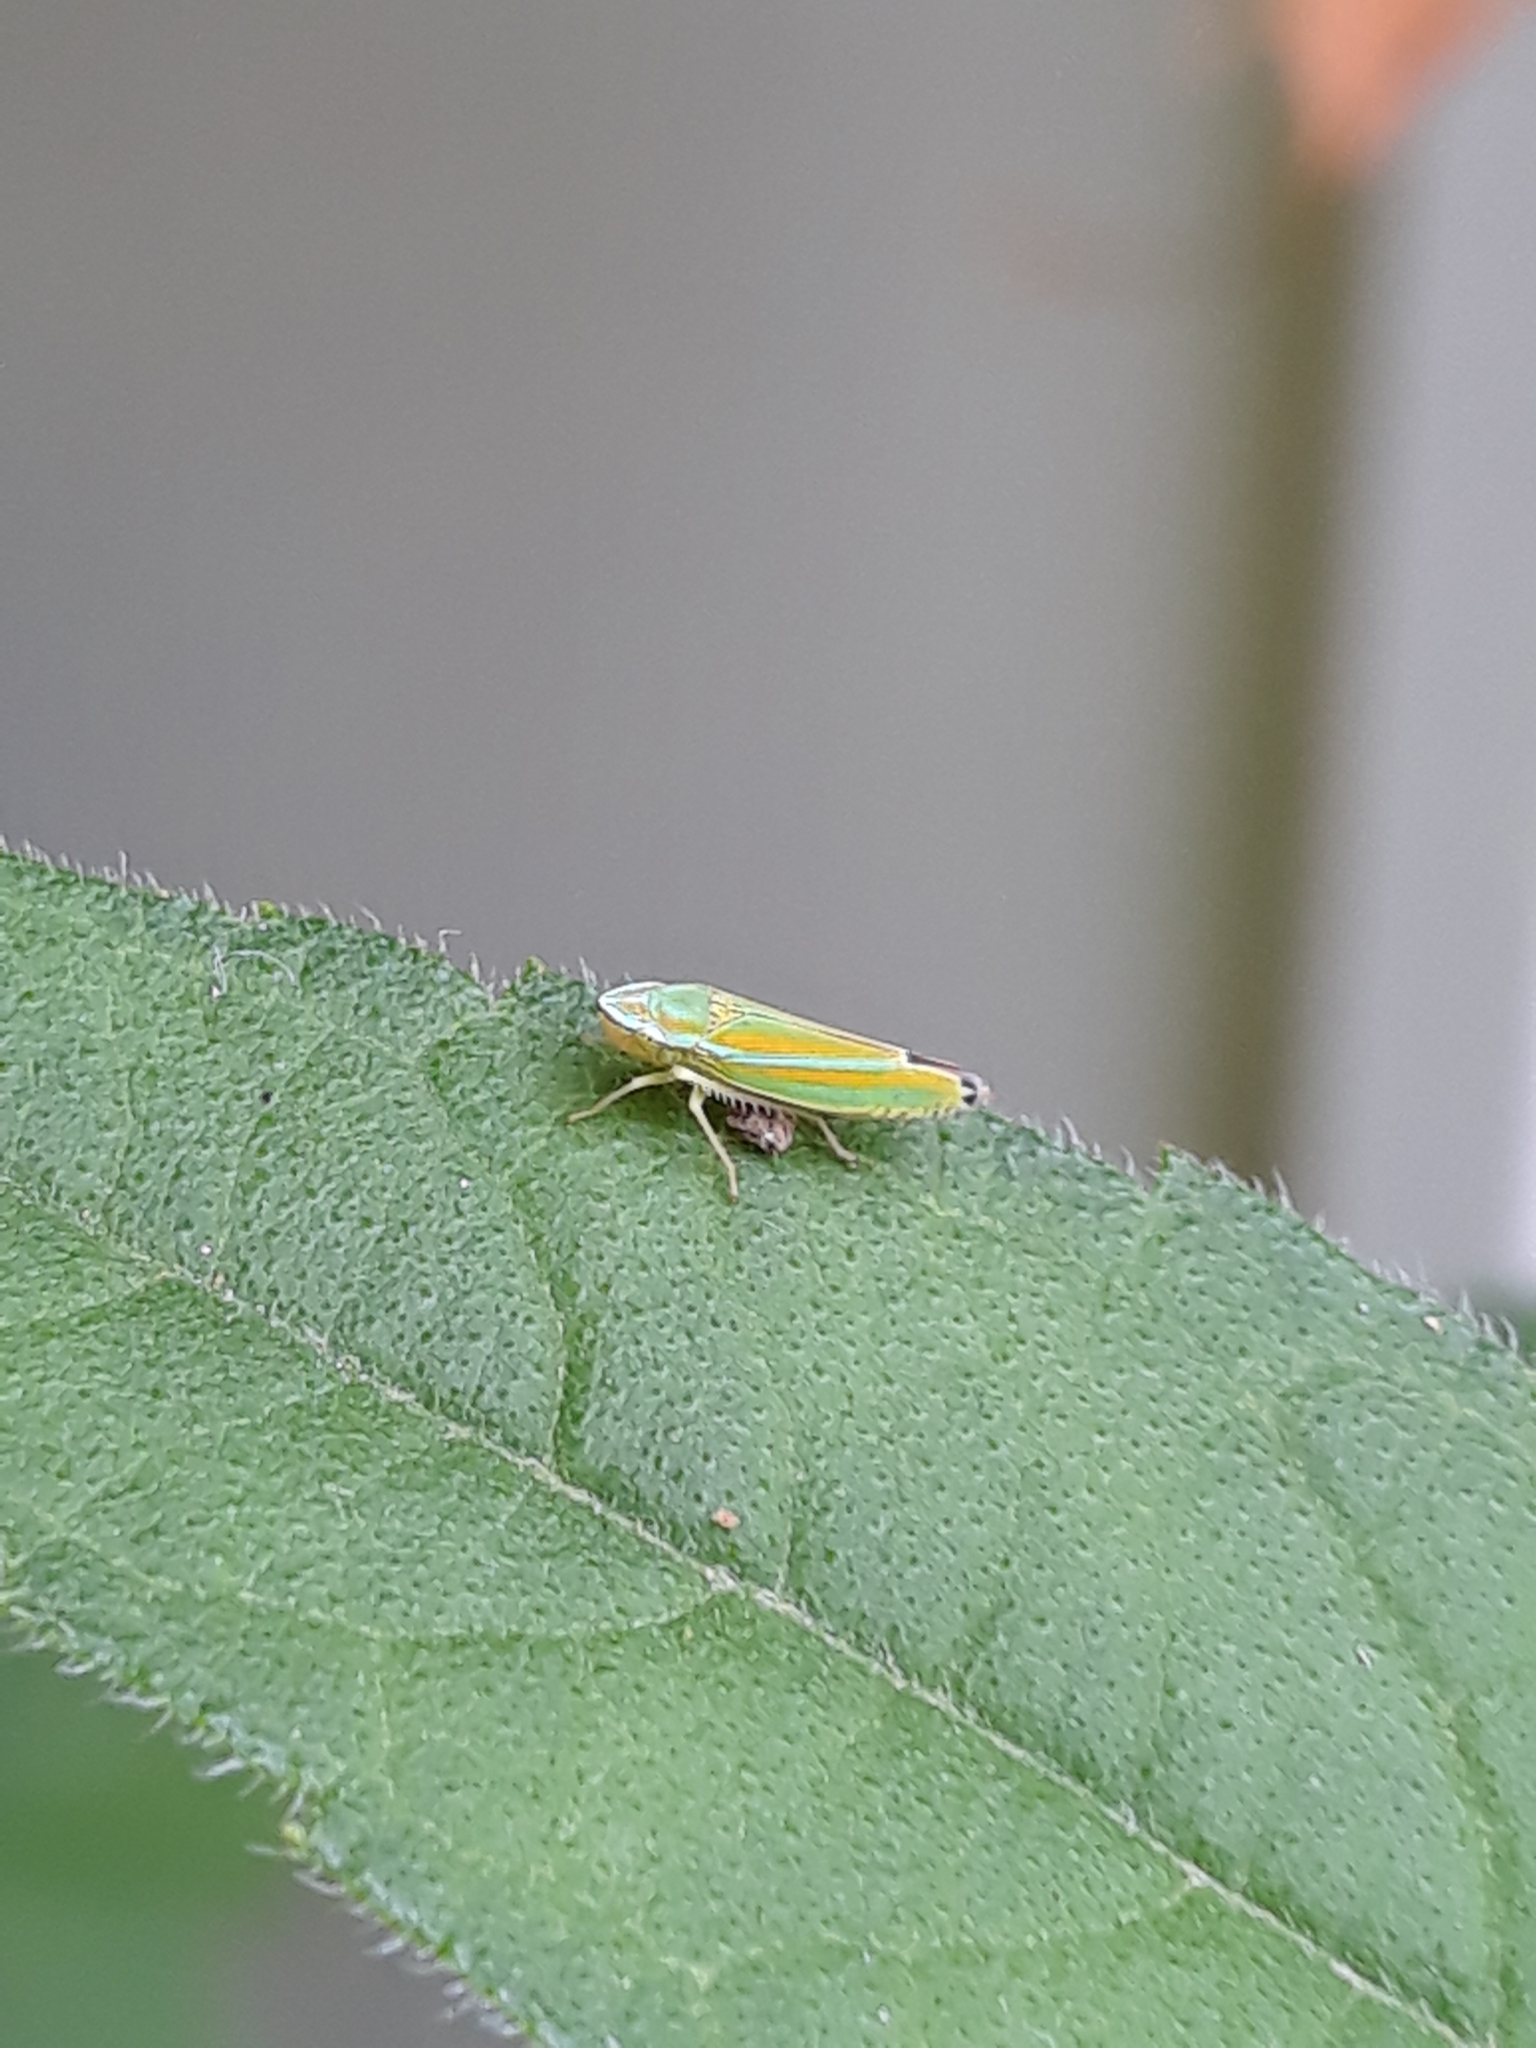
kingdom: Animalia
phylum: Arthropoda
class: Insecta
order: Hemiptera
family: Cicadellidae
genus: Graphocephala
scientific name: Graphocephala versuta
